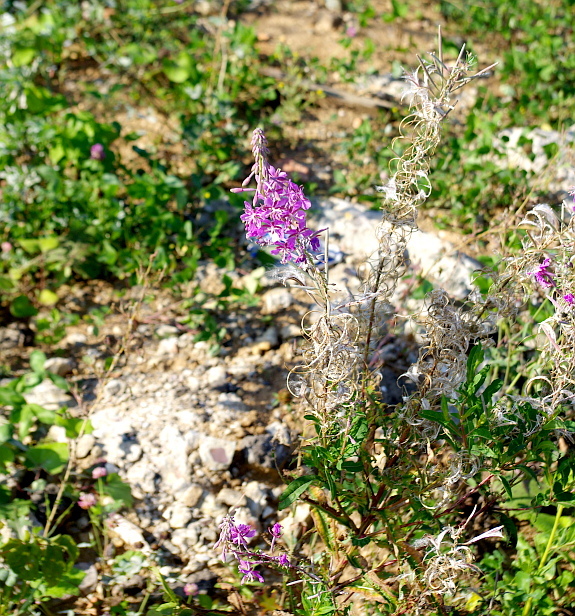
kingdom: Plantae
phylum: Tracheophyta
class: Magnoliopsida
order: Myrtales
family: Onagraceae
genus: Chamaenerion
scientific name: Chamaenerion angustifolium
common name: Fireweed
